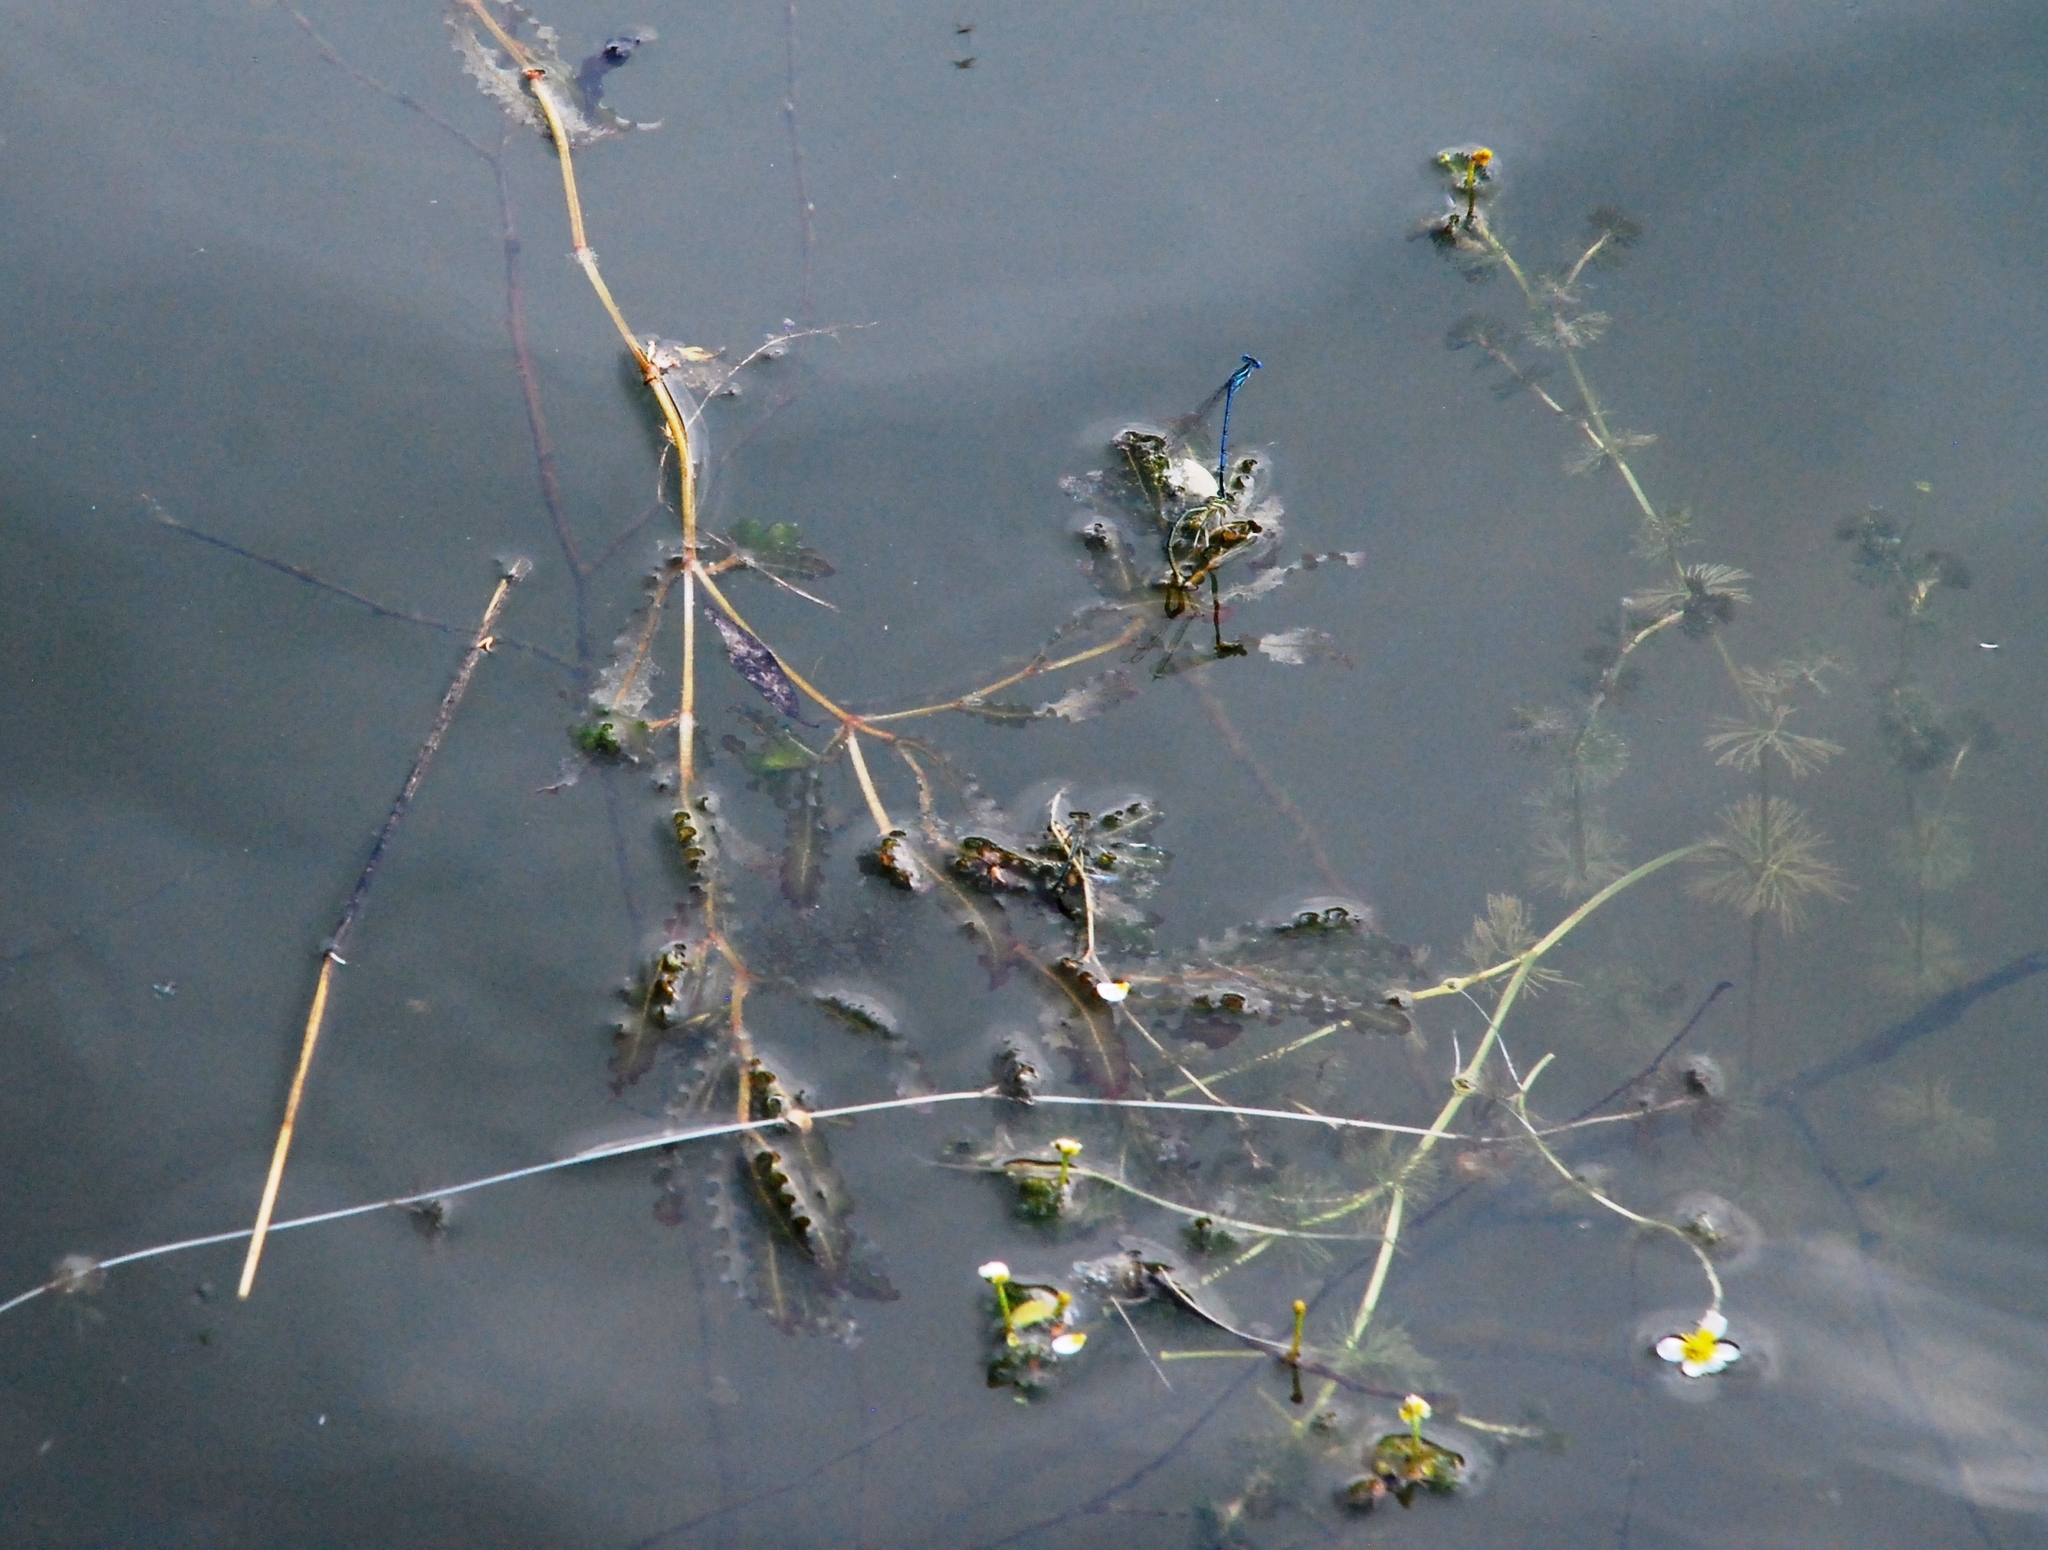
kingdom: Plantae
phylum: Tracheophyta
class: Liliopsida
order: Alismatales
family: Potamogetonaceae
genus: Potamogeton
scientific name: Potamogeton crispus
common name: Curled pondweed
